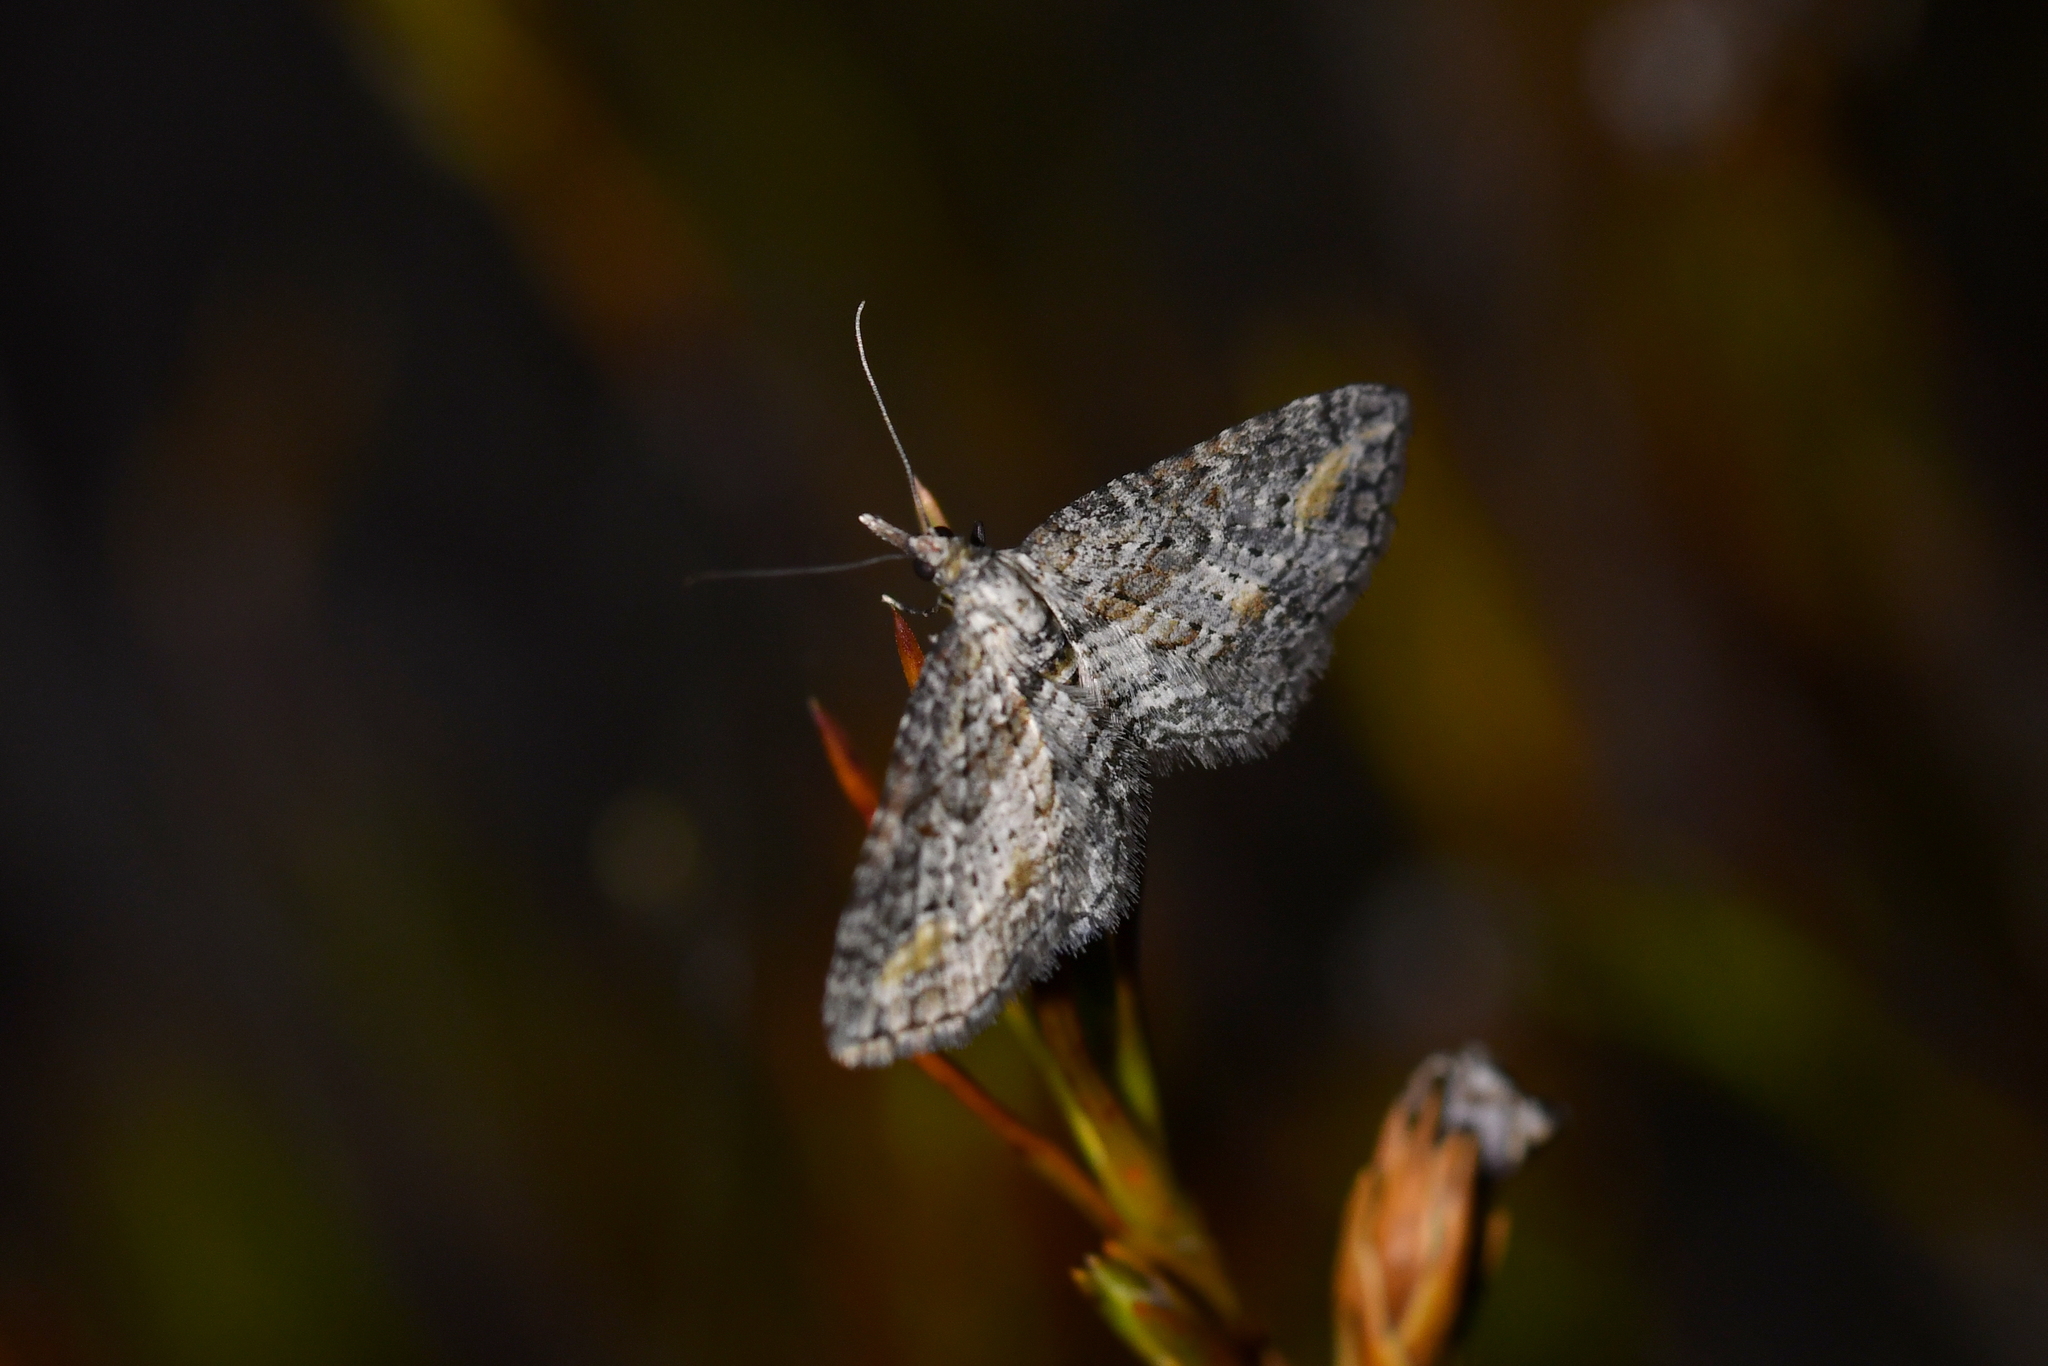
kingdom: Animalia
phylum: Arthropoda
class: Insecta
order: Lepidoptera
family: Geometridae
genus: Pasiphila
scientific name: Pasiphila humilis
